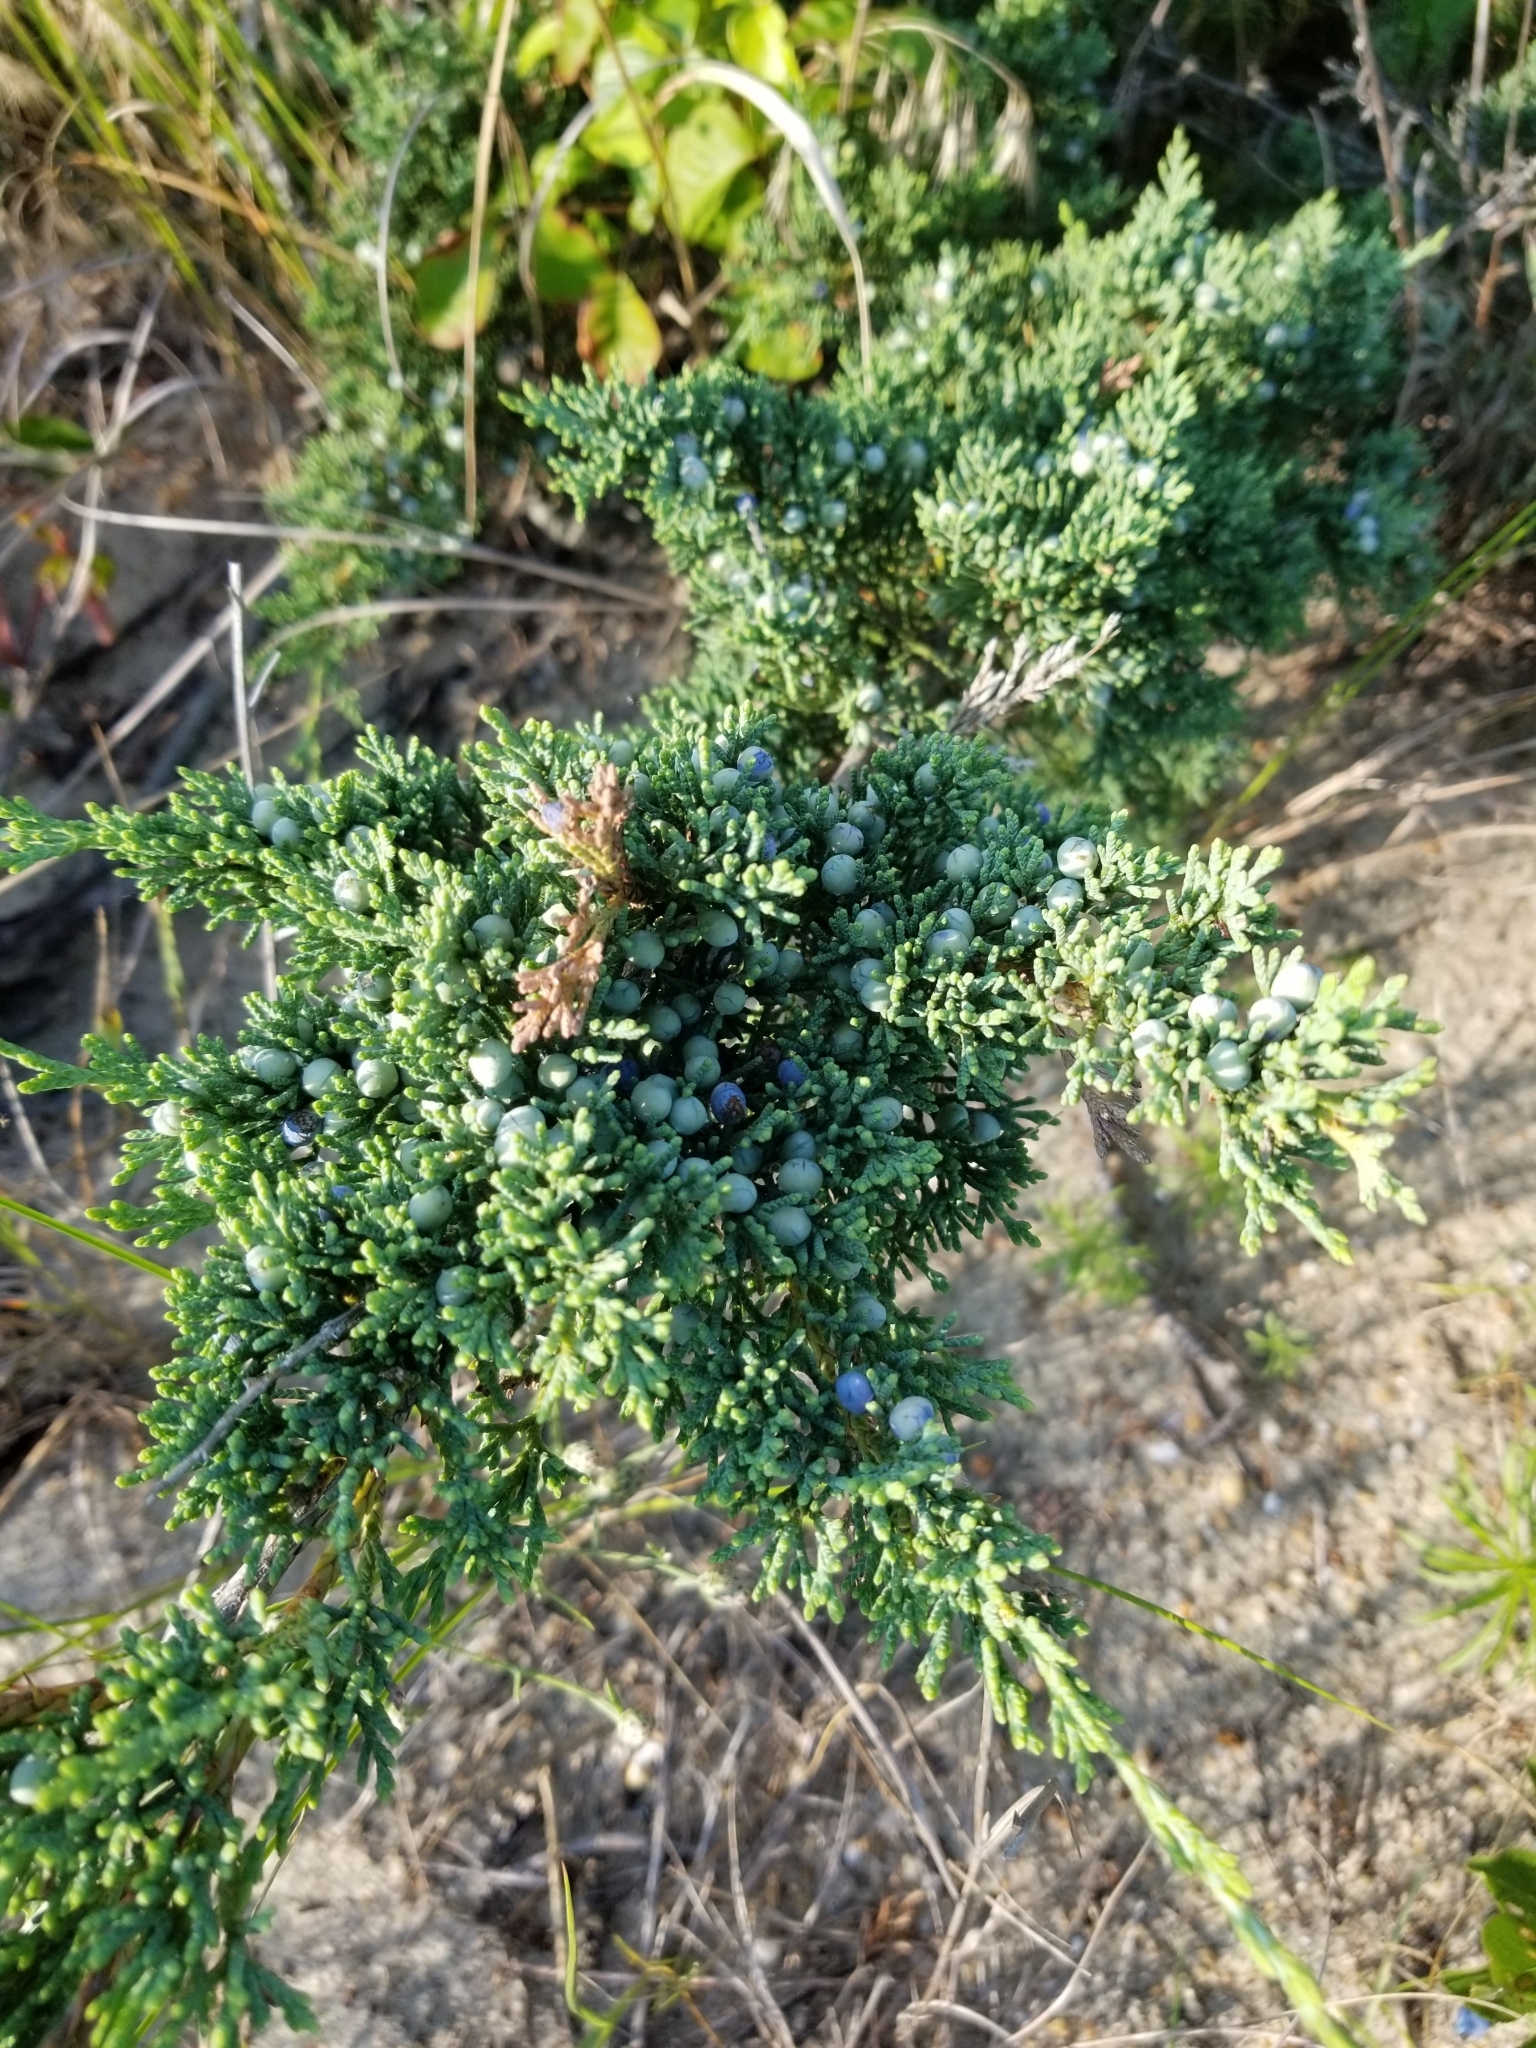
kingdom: Plantae
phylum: Tracheophyta
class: Pinopsida
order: Pinales
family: Cupressaceae
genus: Juniperus
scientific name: Juniperus virginiana
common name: Red juniper
